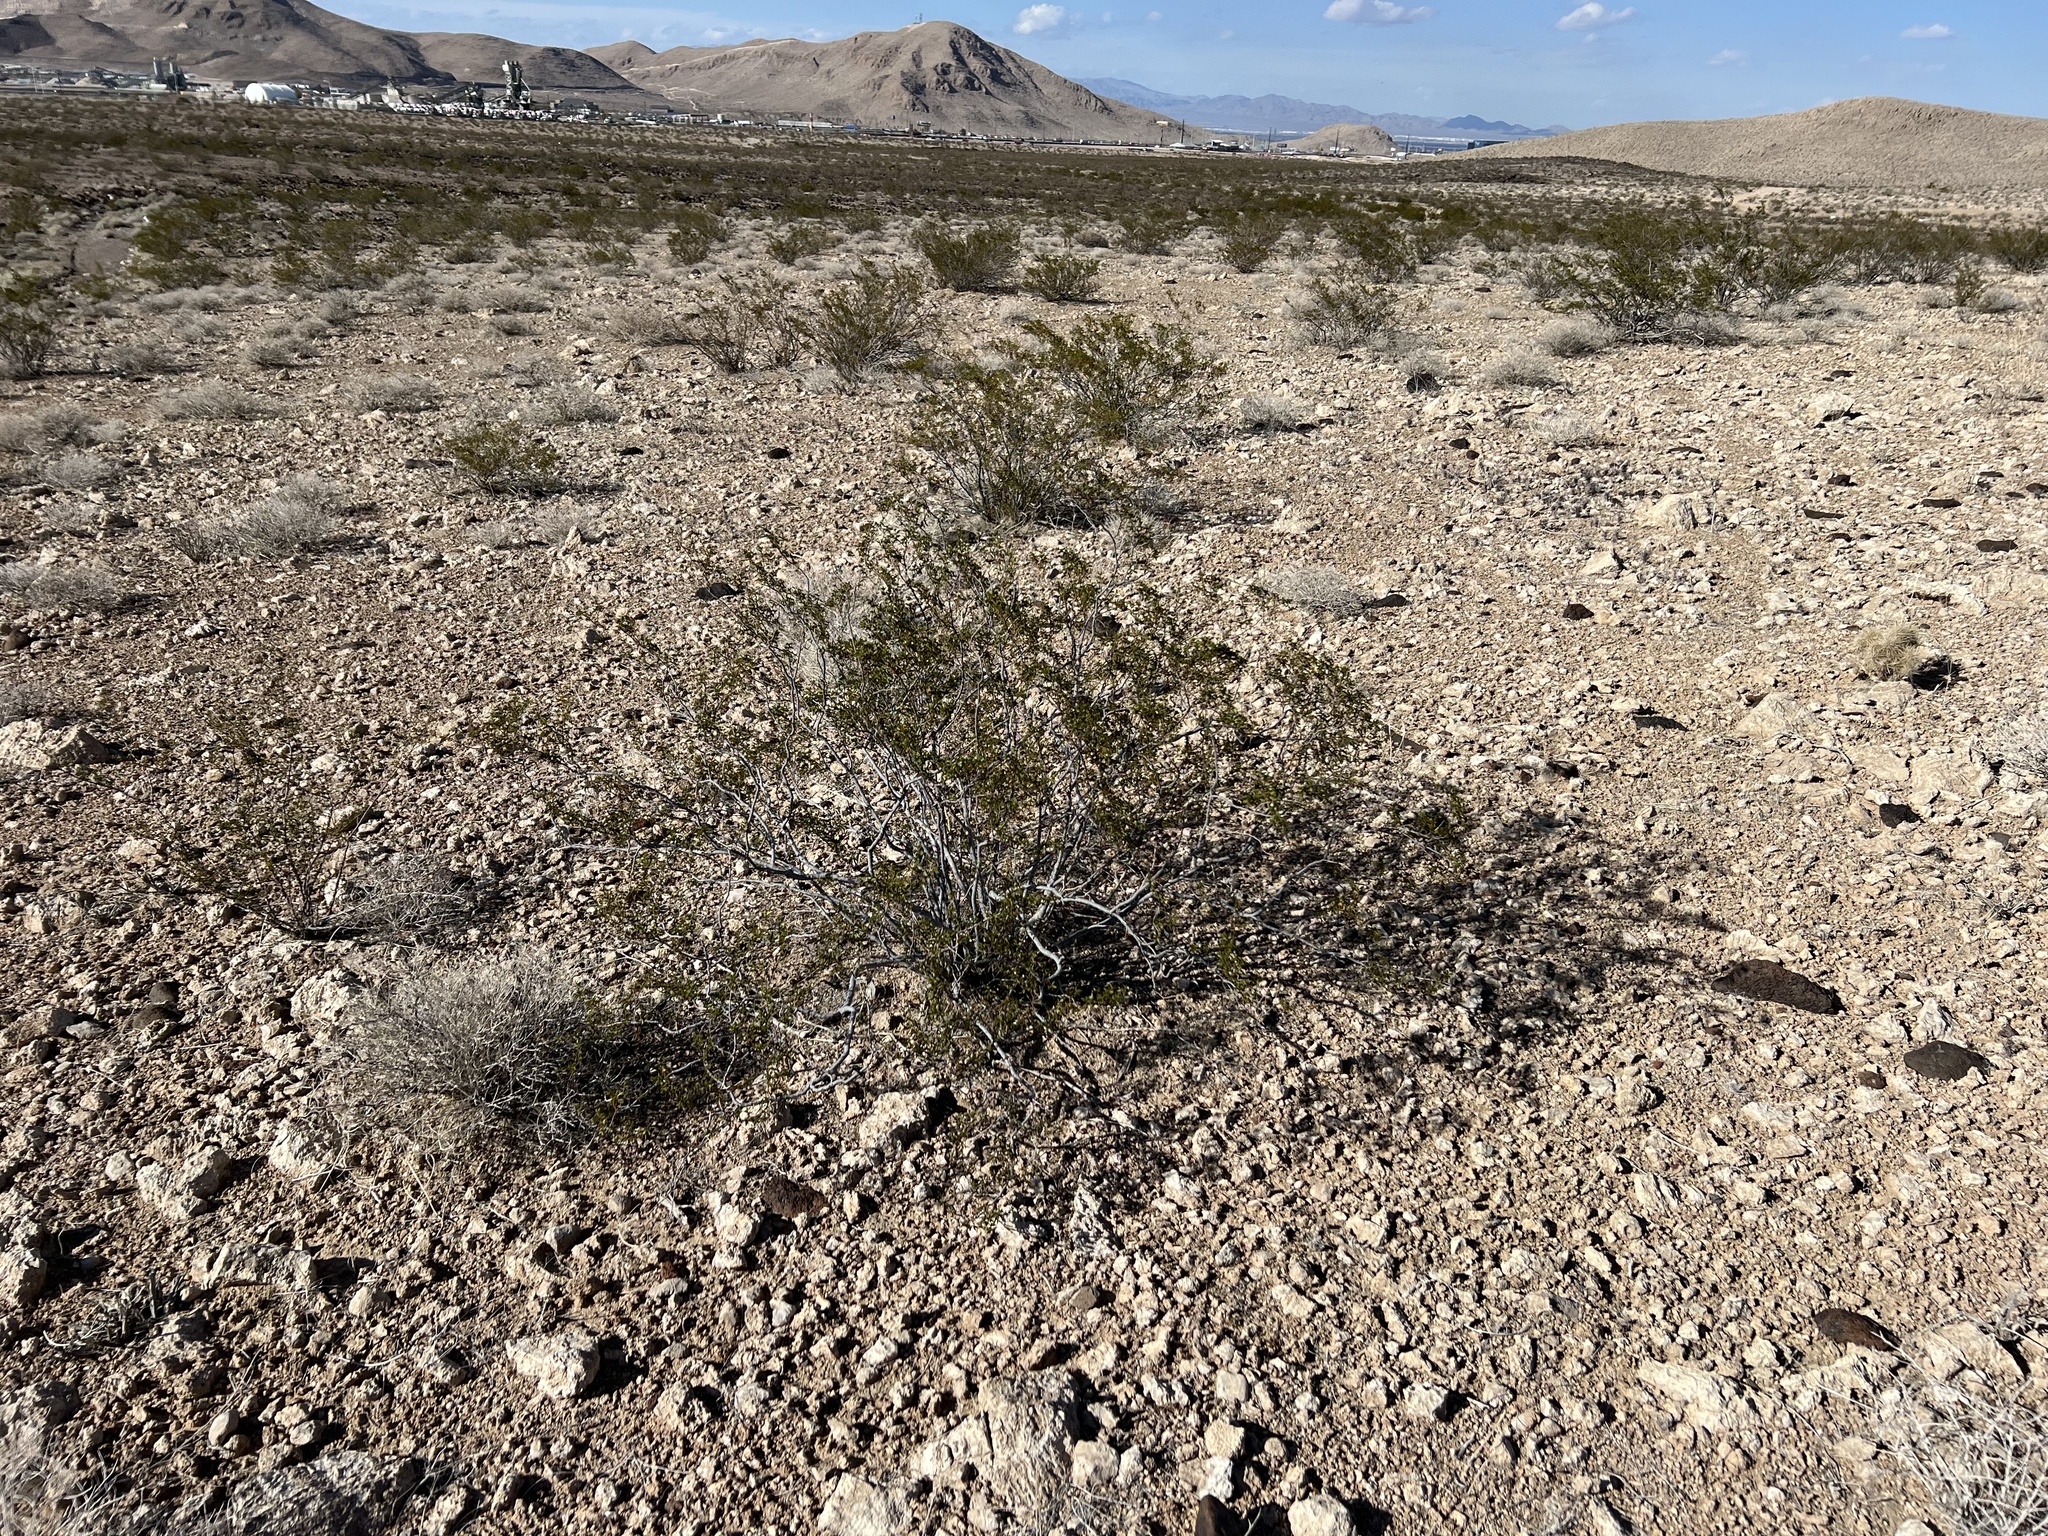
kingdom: Plantae
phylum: Tracheophyta
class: Magnoliopsida
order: Zygophyllales
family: Zygophyllaceae
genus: Larrea
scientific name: Larrea tridentata
